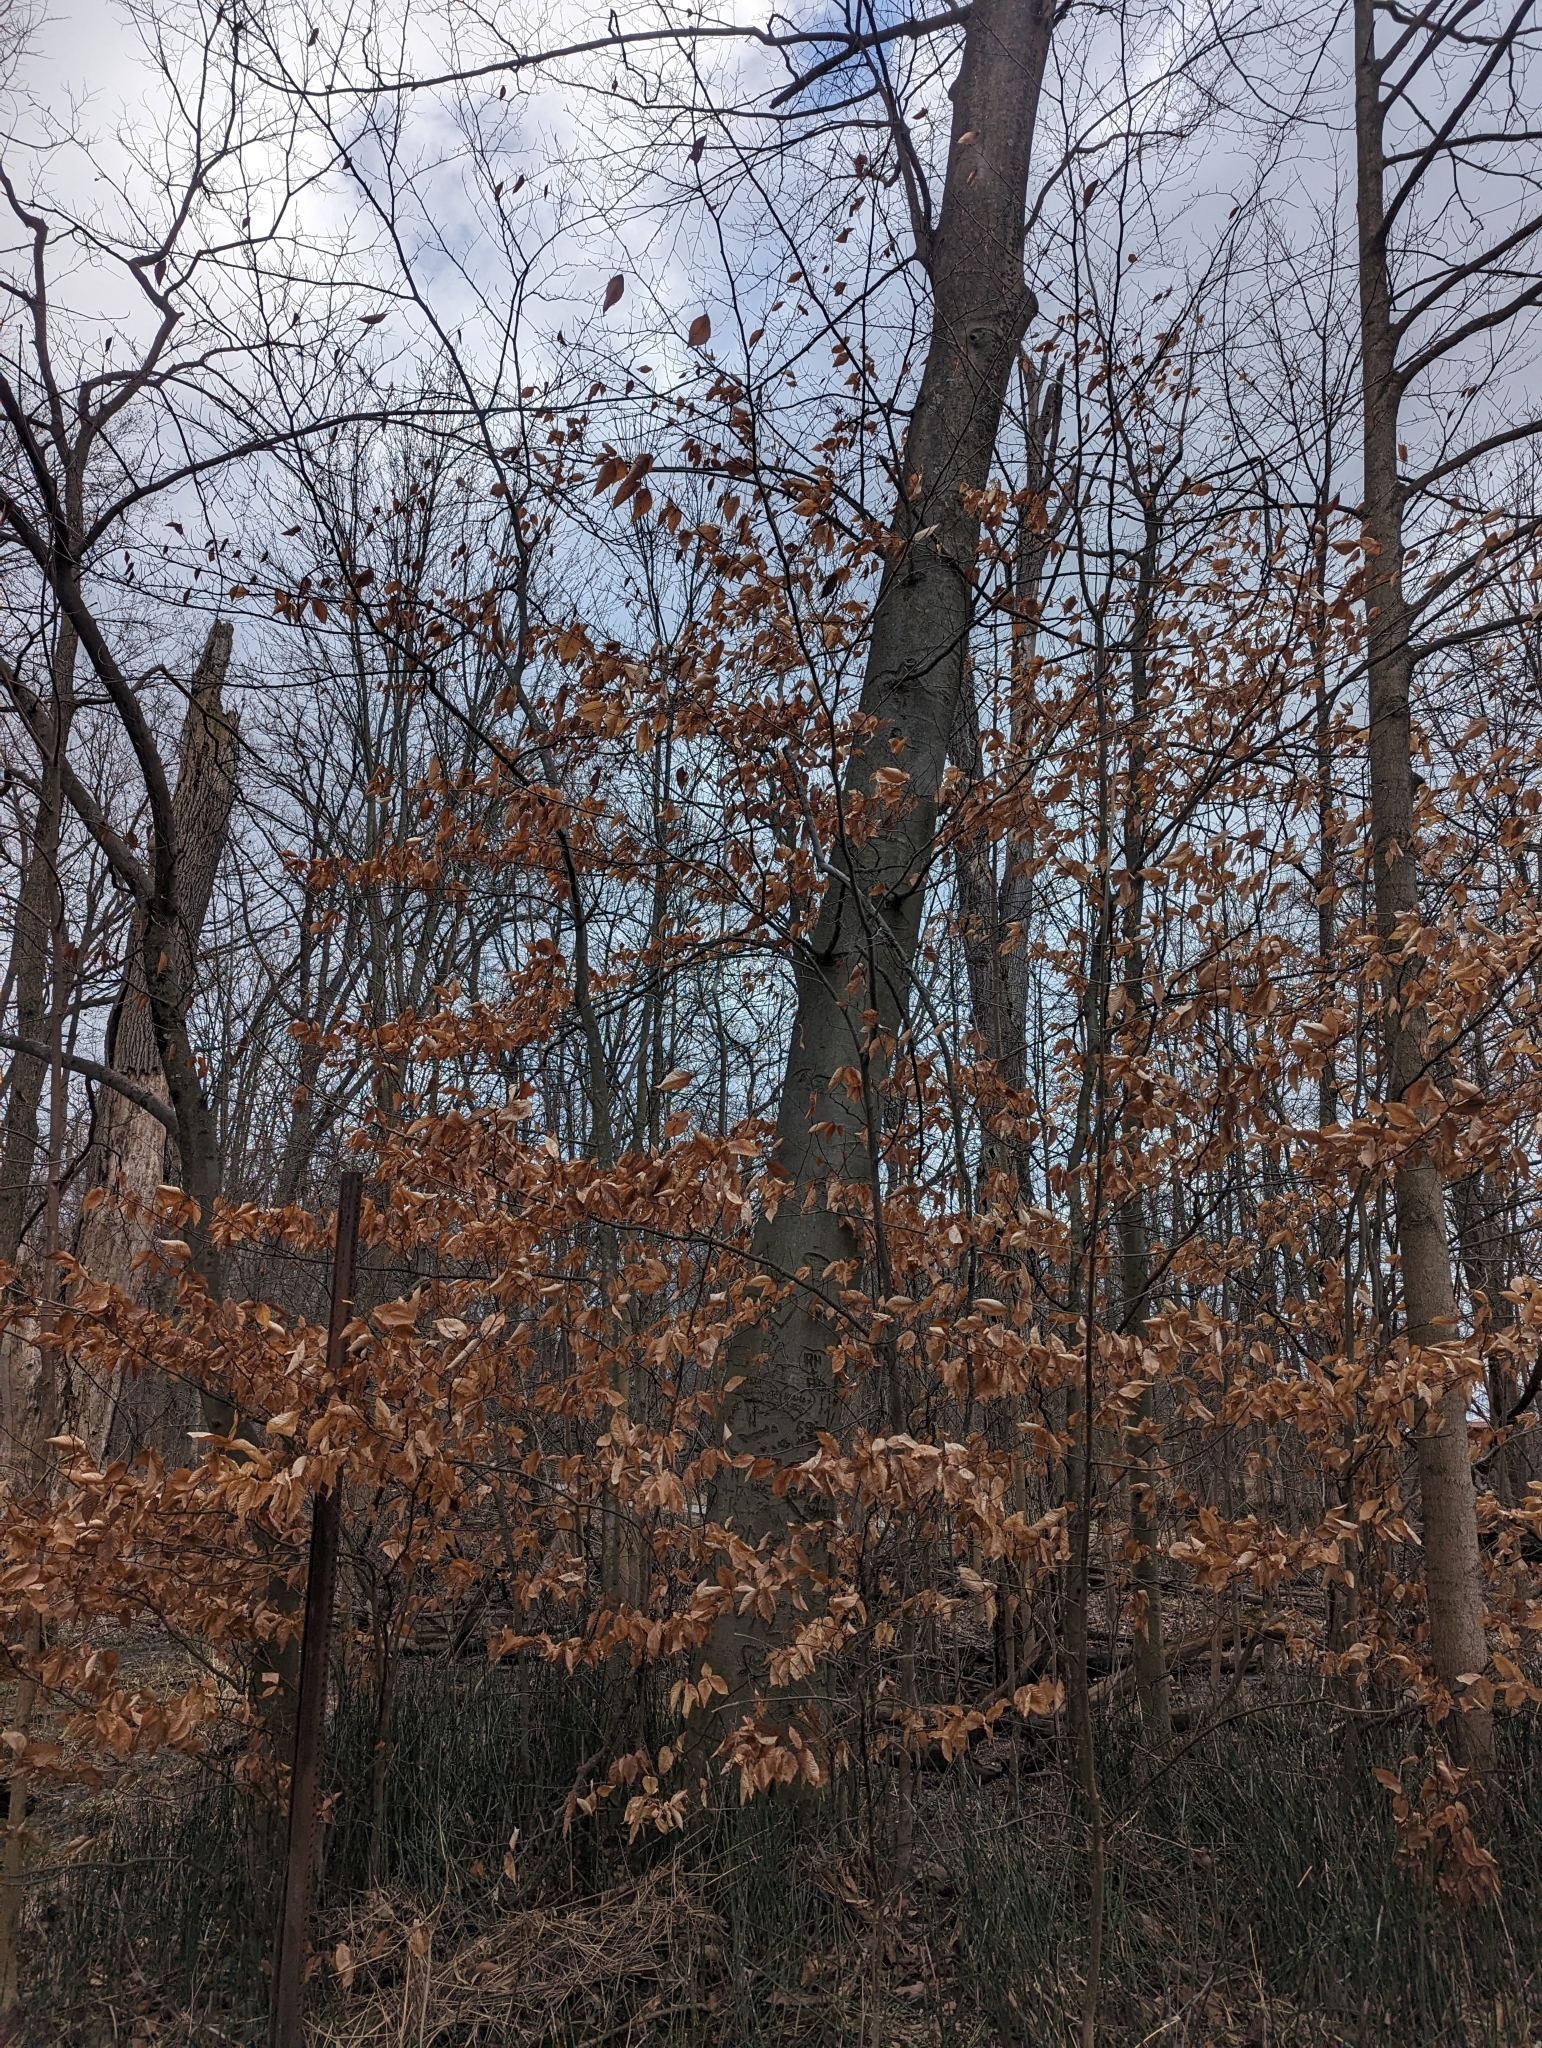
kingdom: Plantae
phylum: Tracheophyta
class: Magnoliopsida
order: Fagales
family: Fagaceae
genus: Fagus
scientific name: Fagus grandifolia
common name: American beech
